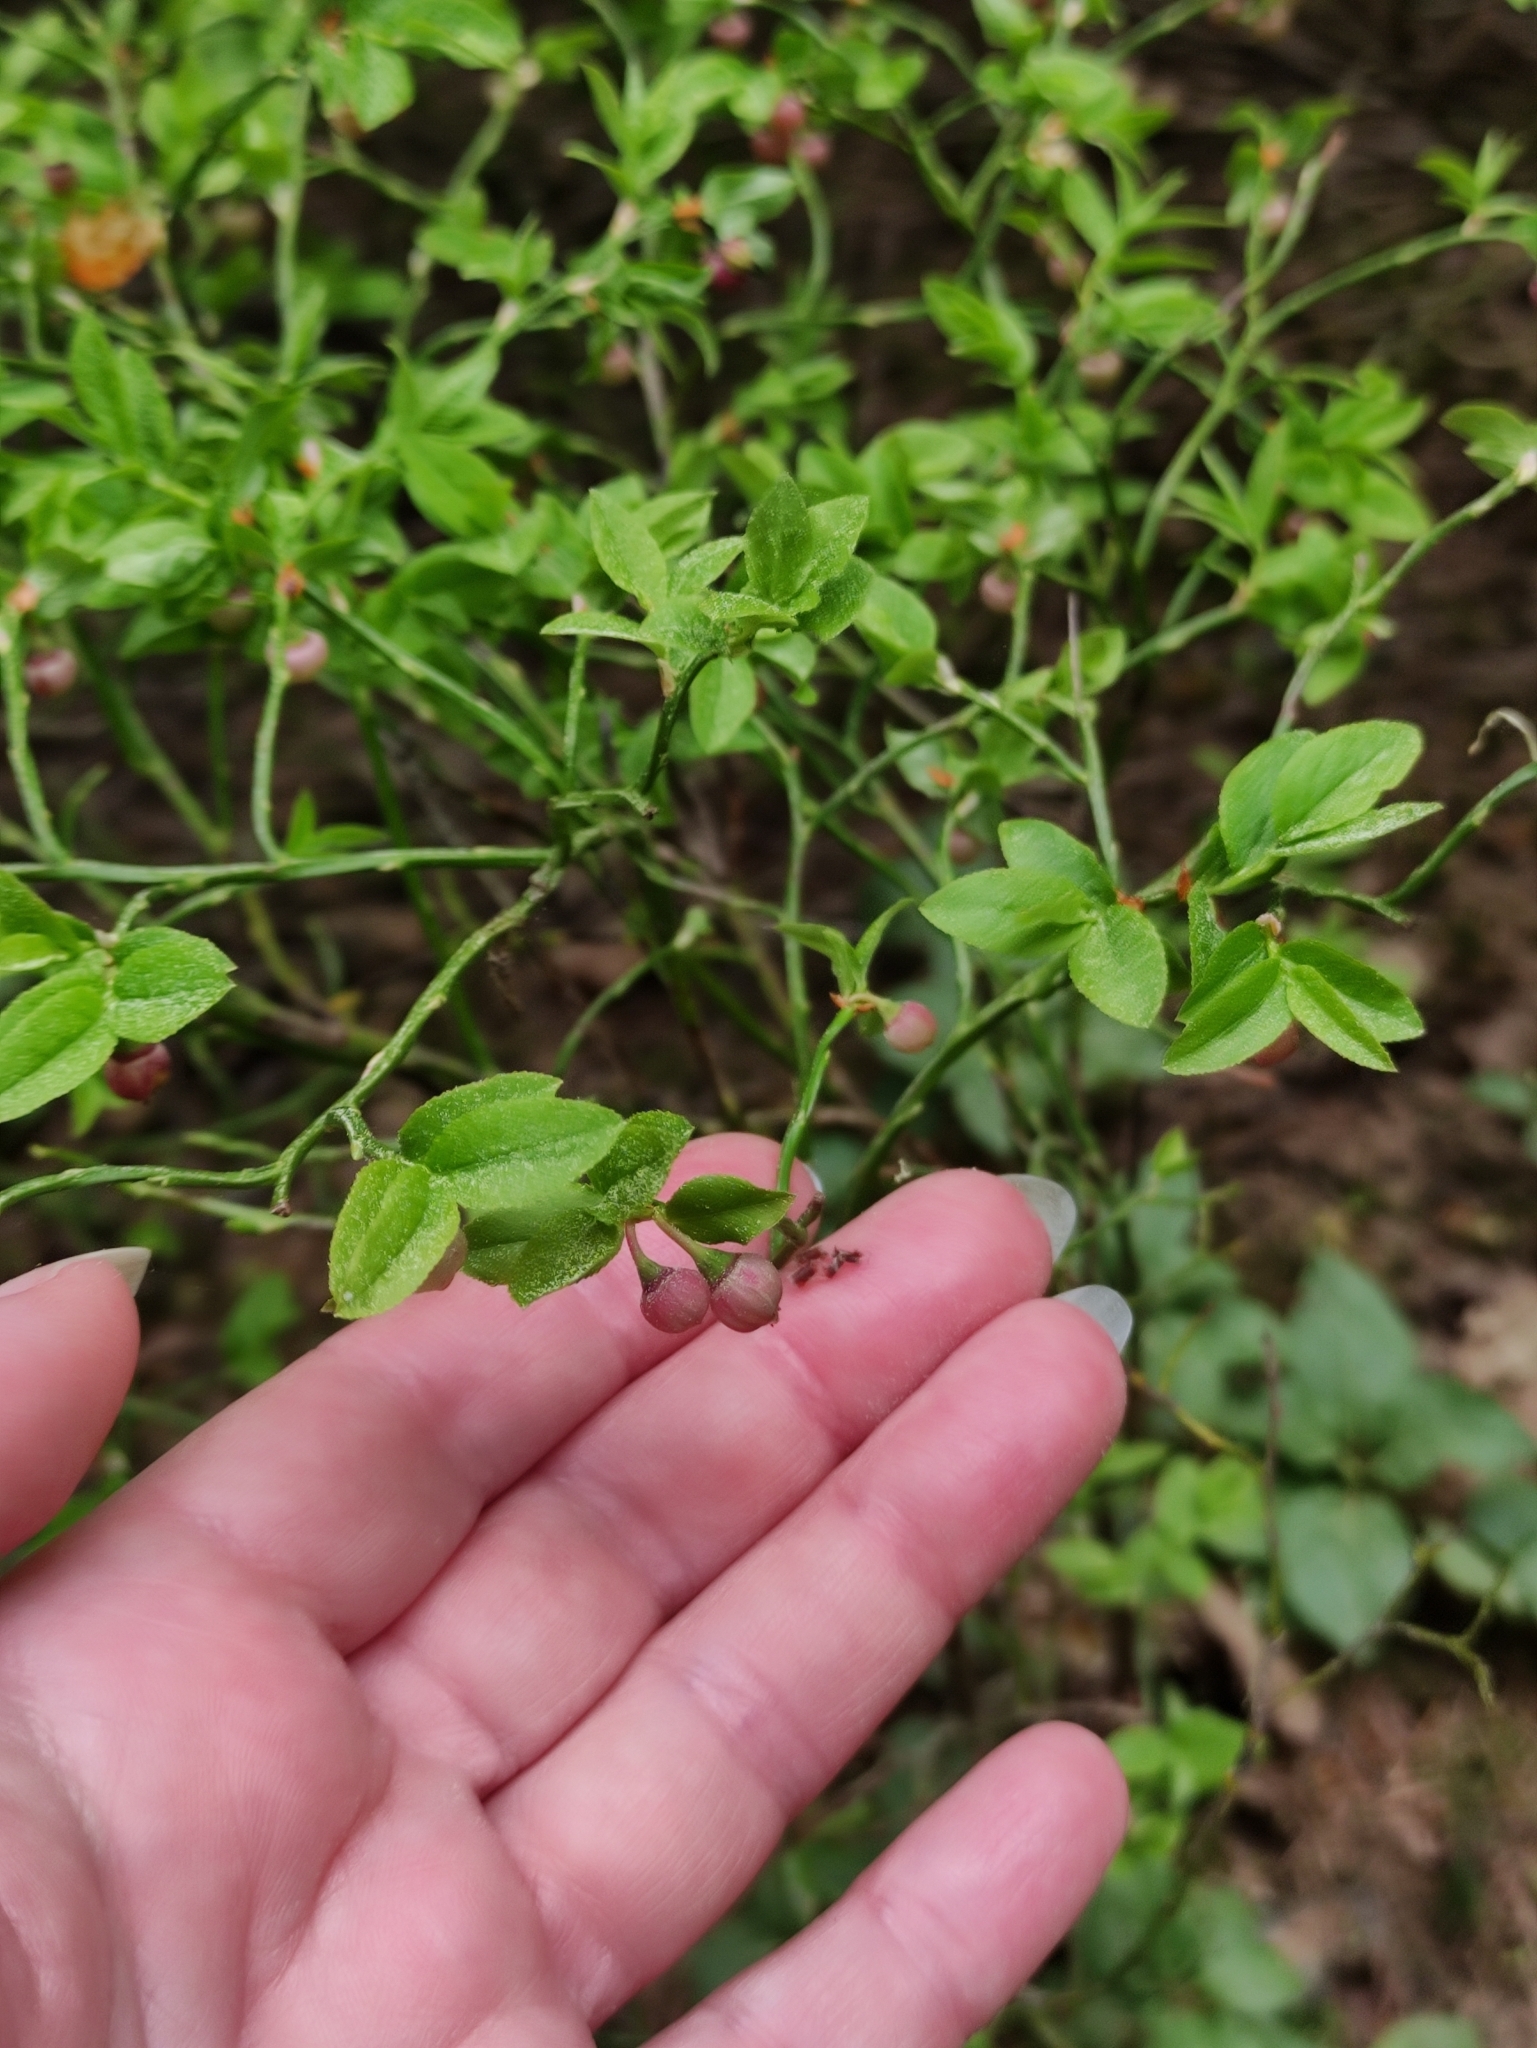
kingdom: Plantae
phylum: Tracheophyta
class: Magnoliopsida
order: Ericales
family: Ericaceae
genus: Vaccinium
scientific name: Vaccinium myrtillus
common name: Bilberry
